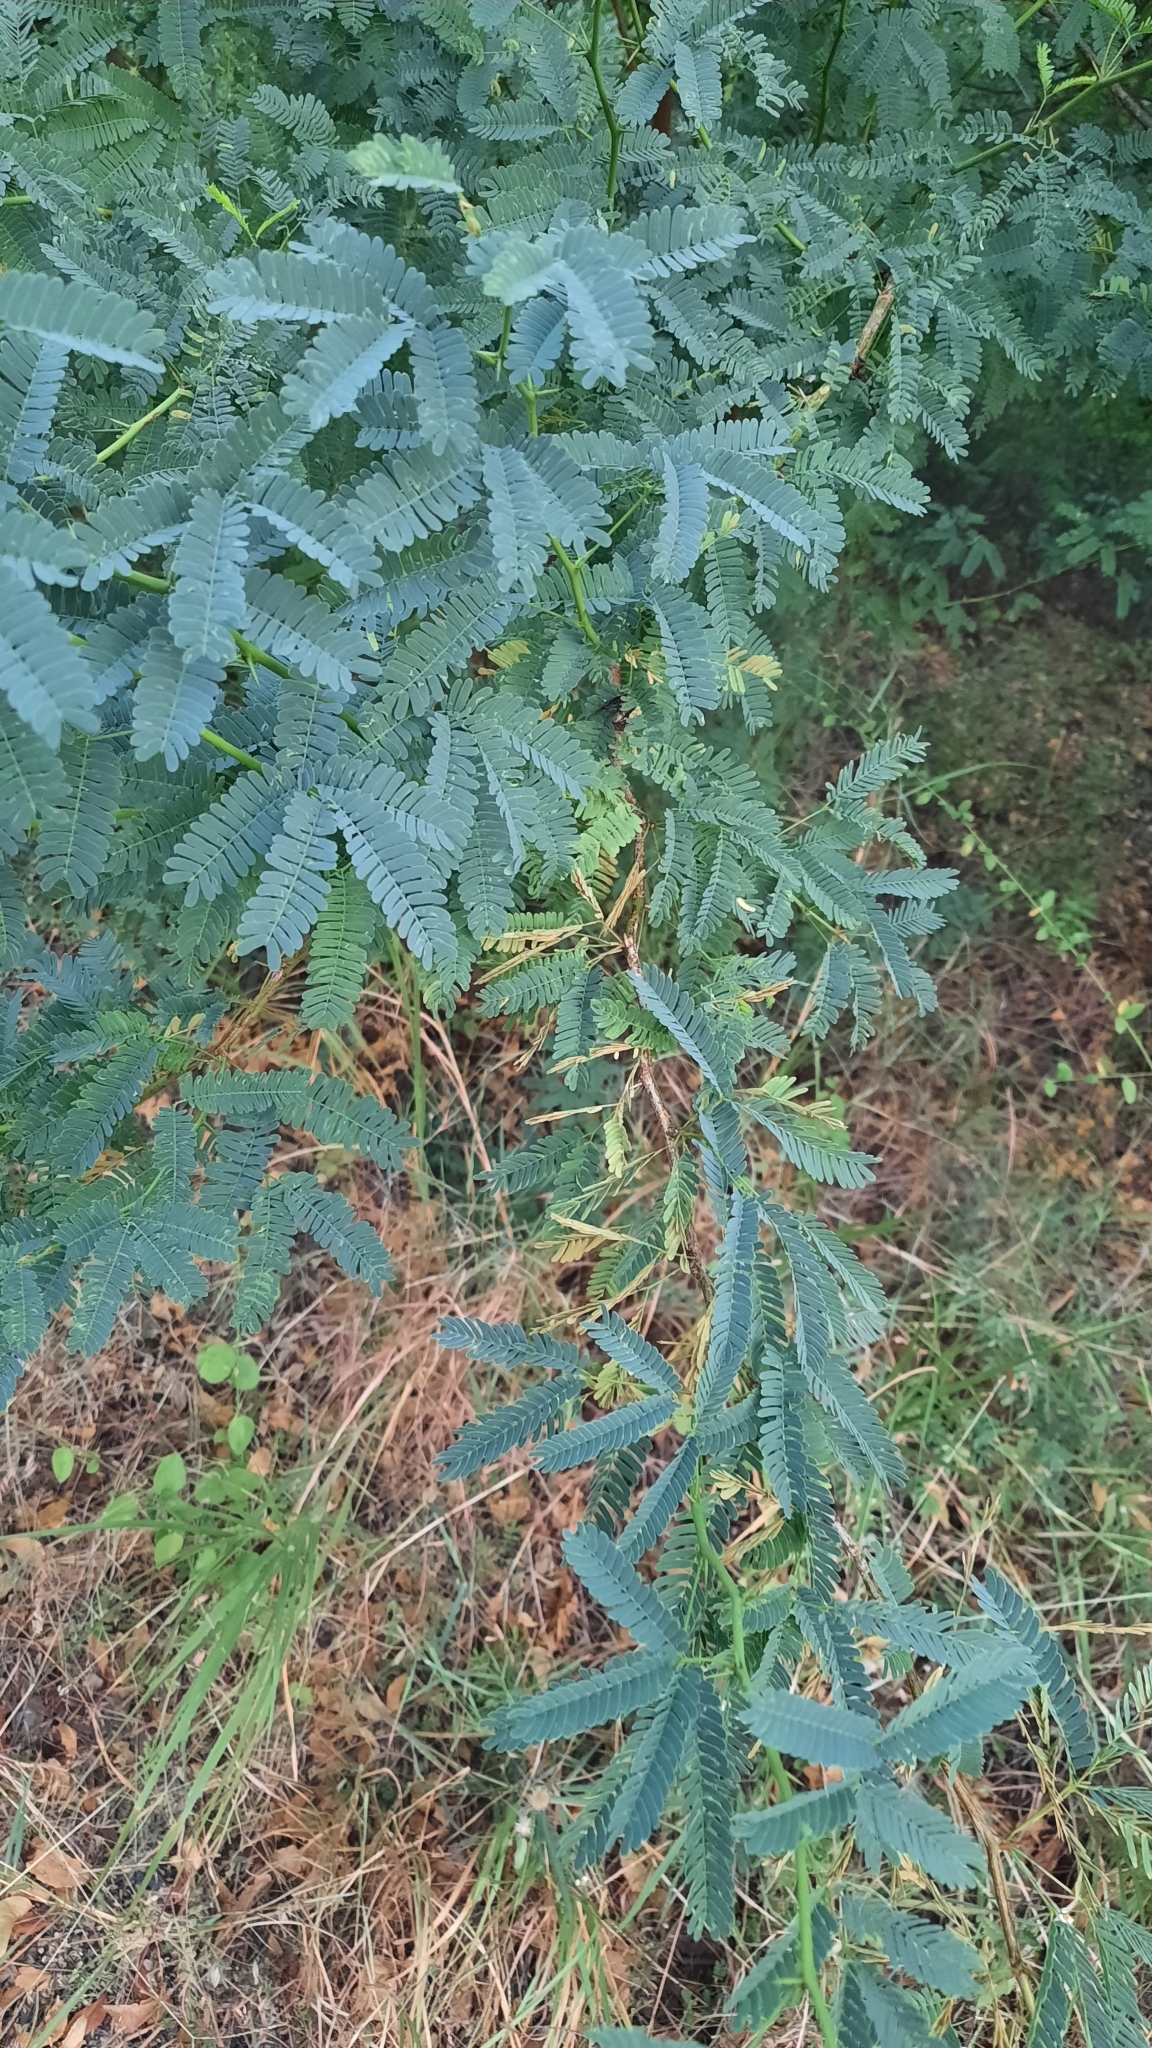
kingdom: Plantae
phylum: Tracheophyta
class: Magnoliopsida
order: Fabales
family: Fabaceae
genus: Prosopis
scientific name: Prosopis juliflora
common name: Mesquite
